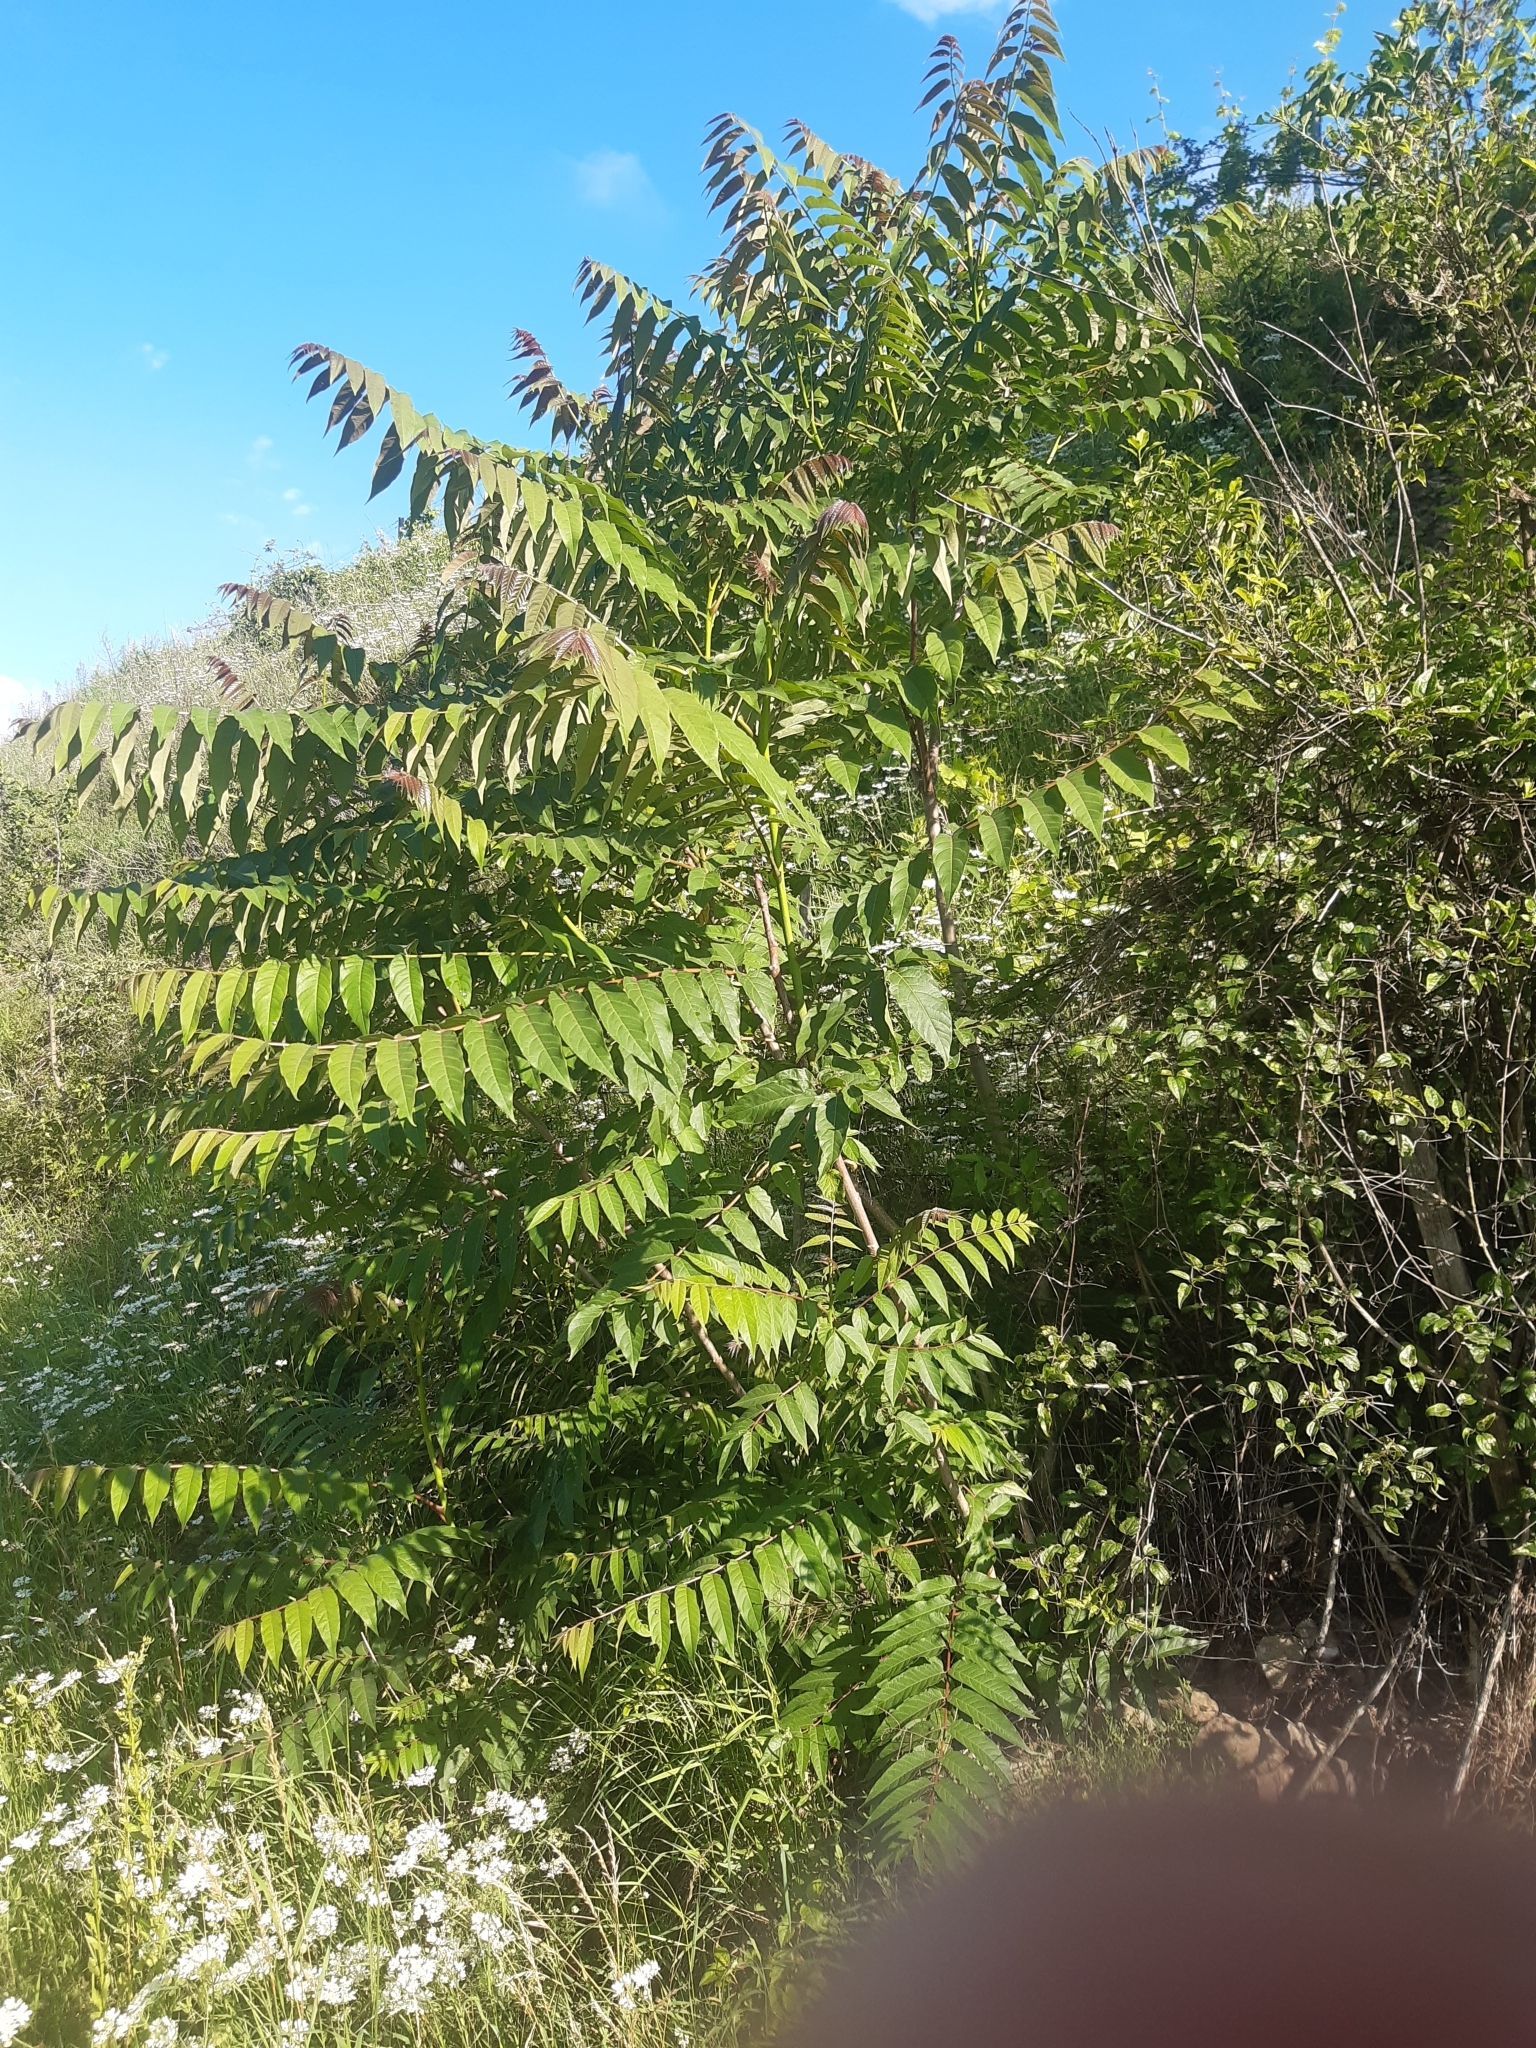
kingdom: Plantae
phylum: Tracheophyta
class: Magnoliopsida
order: Sapindales
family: Simaroubaceae
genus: Ailanthus
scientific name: Ailanthus altissima
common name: Tree-of-heaven
